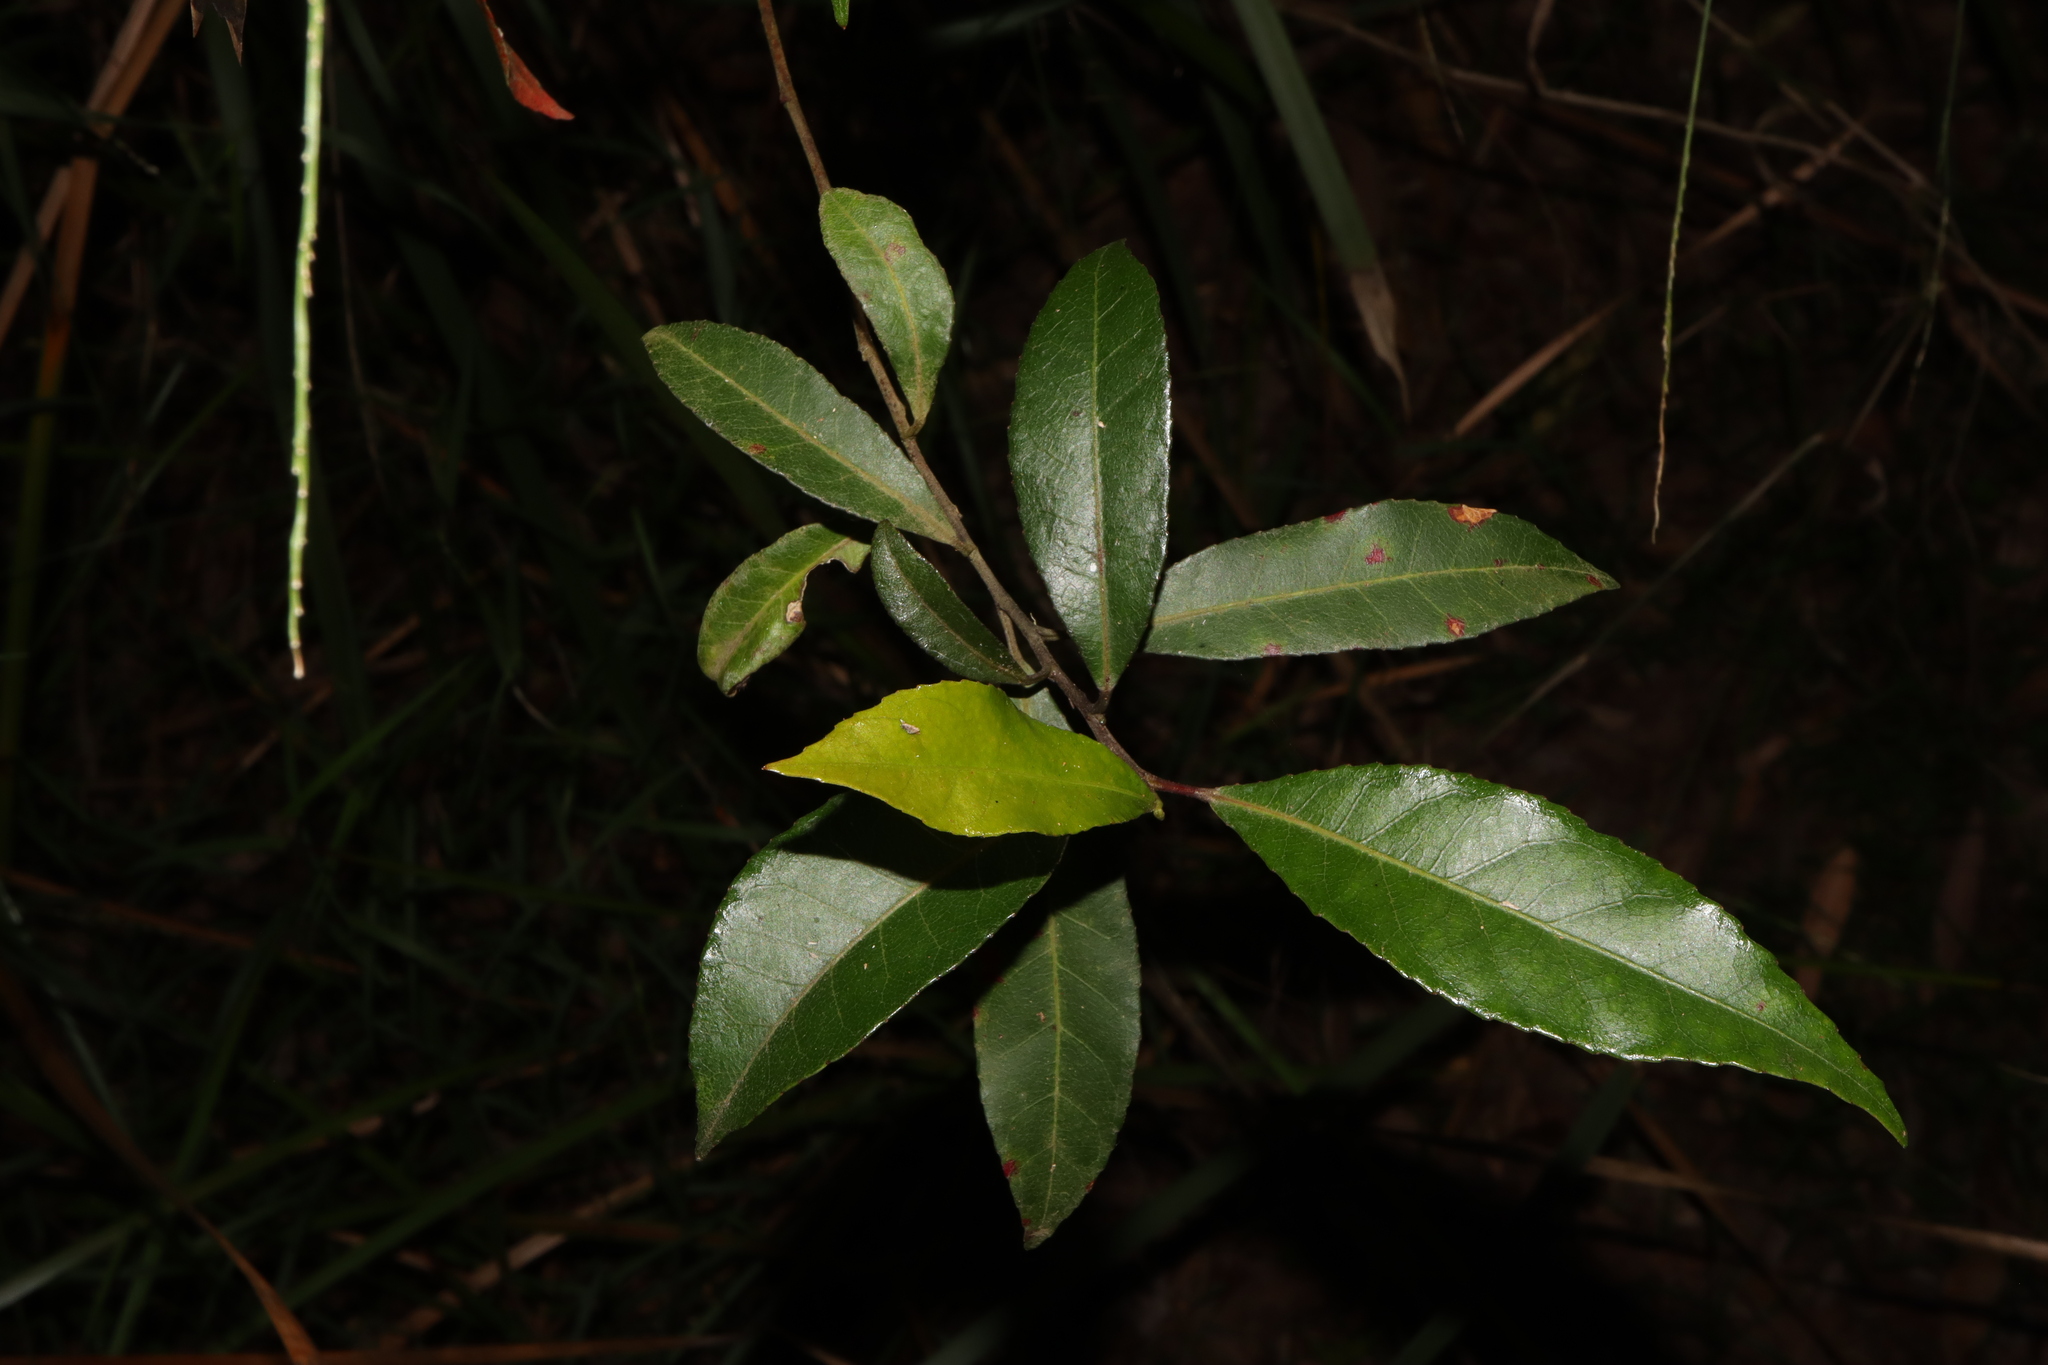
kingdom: Plantae
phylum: Tracheophyta
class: Magnoliopsida
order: Oxalidales
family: Elaeocarpaceae
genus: Elaeocarpus
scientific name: Elaeocarpus reticulatus
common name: Ash quandong
